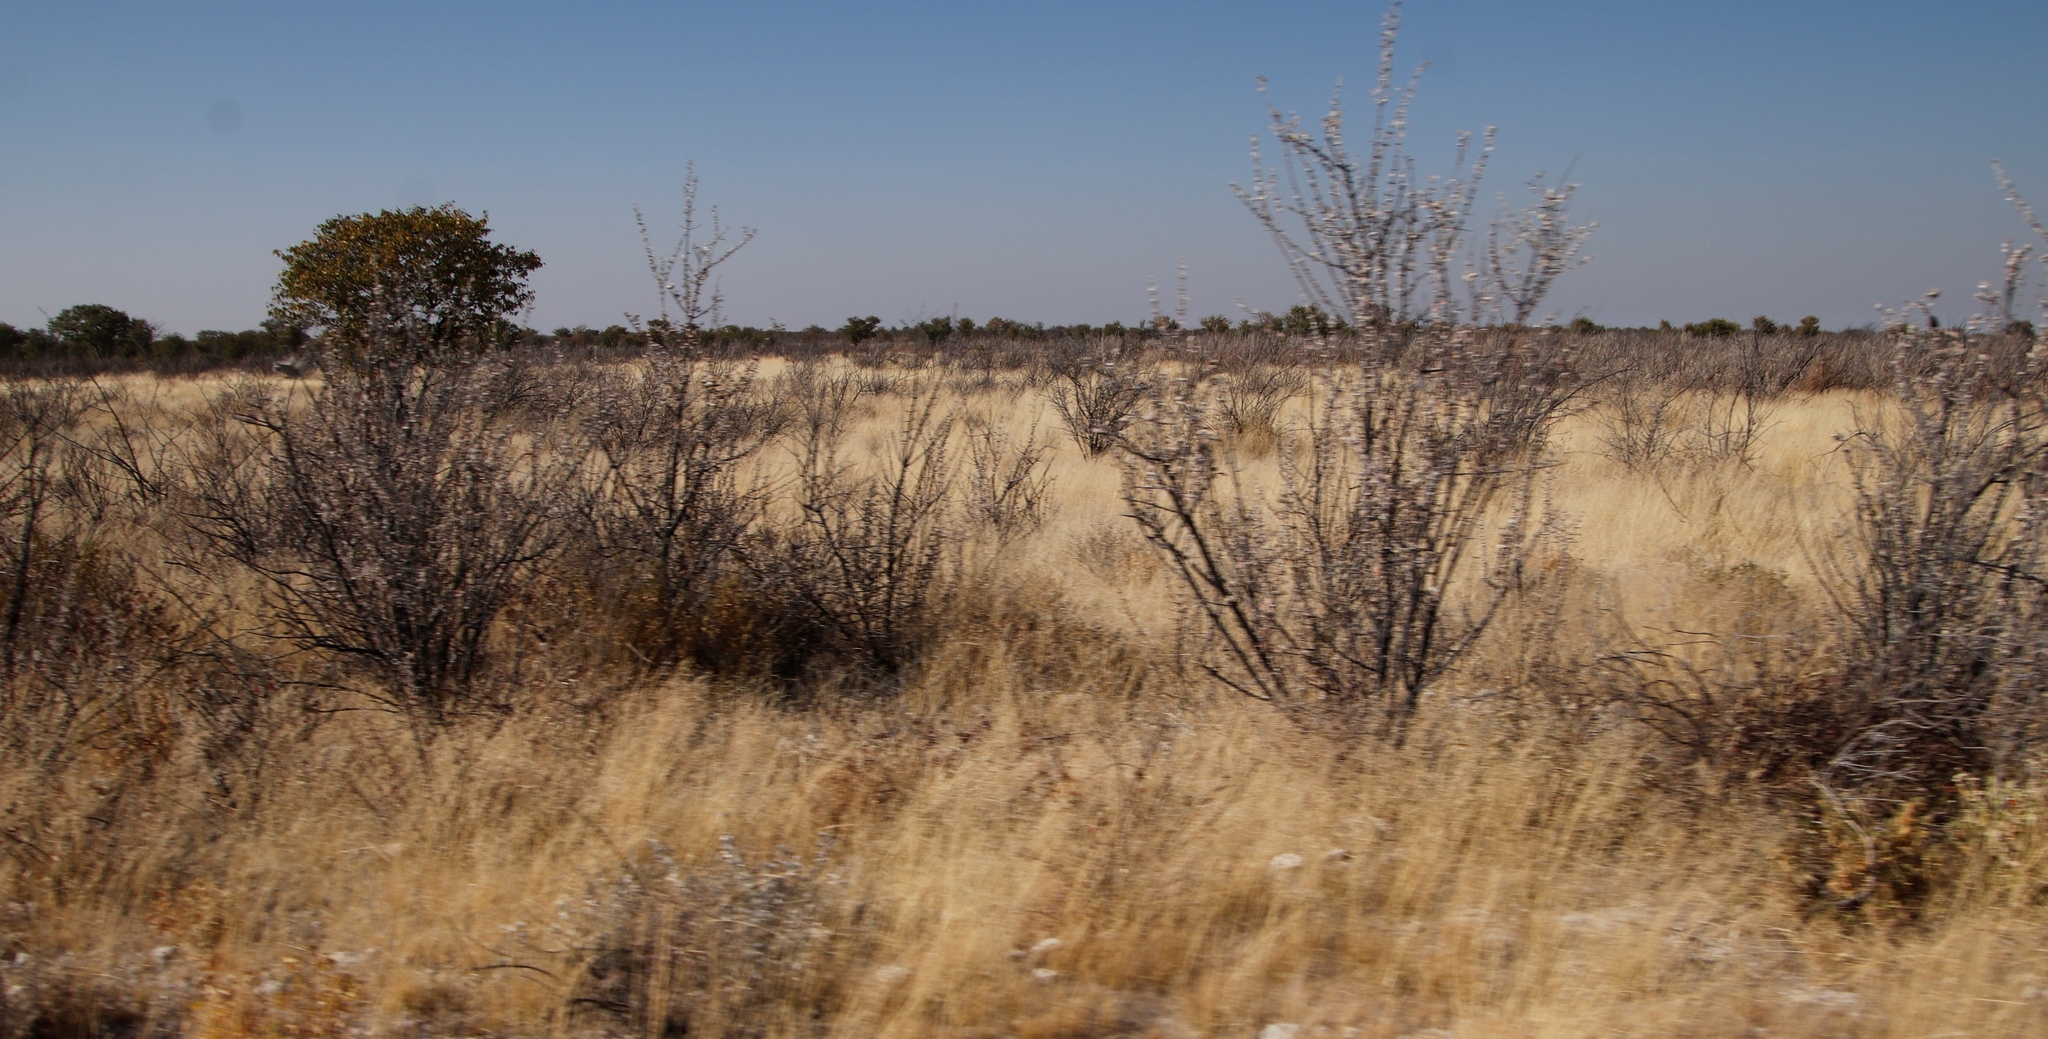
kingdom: Plantae
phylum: Tracheophyta
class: Magnoliopsida
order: Lamiales
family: Bignoniaceae
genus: Catophractes
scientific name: Catophractes alexandri
